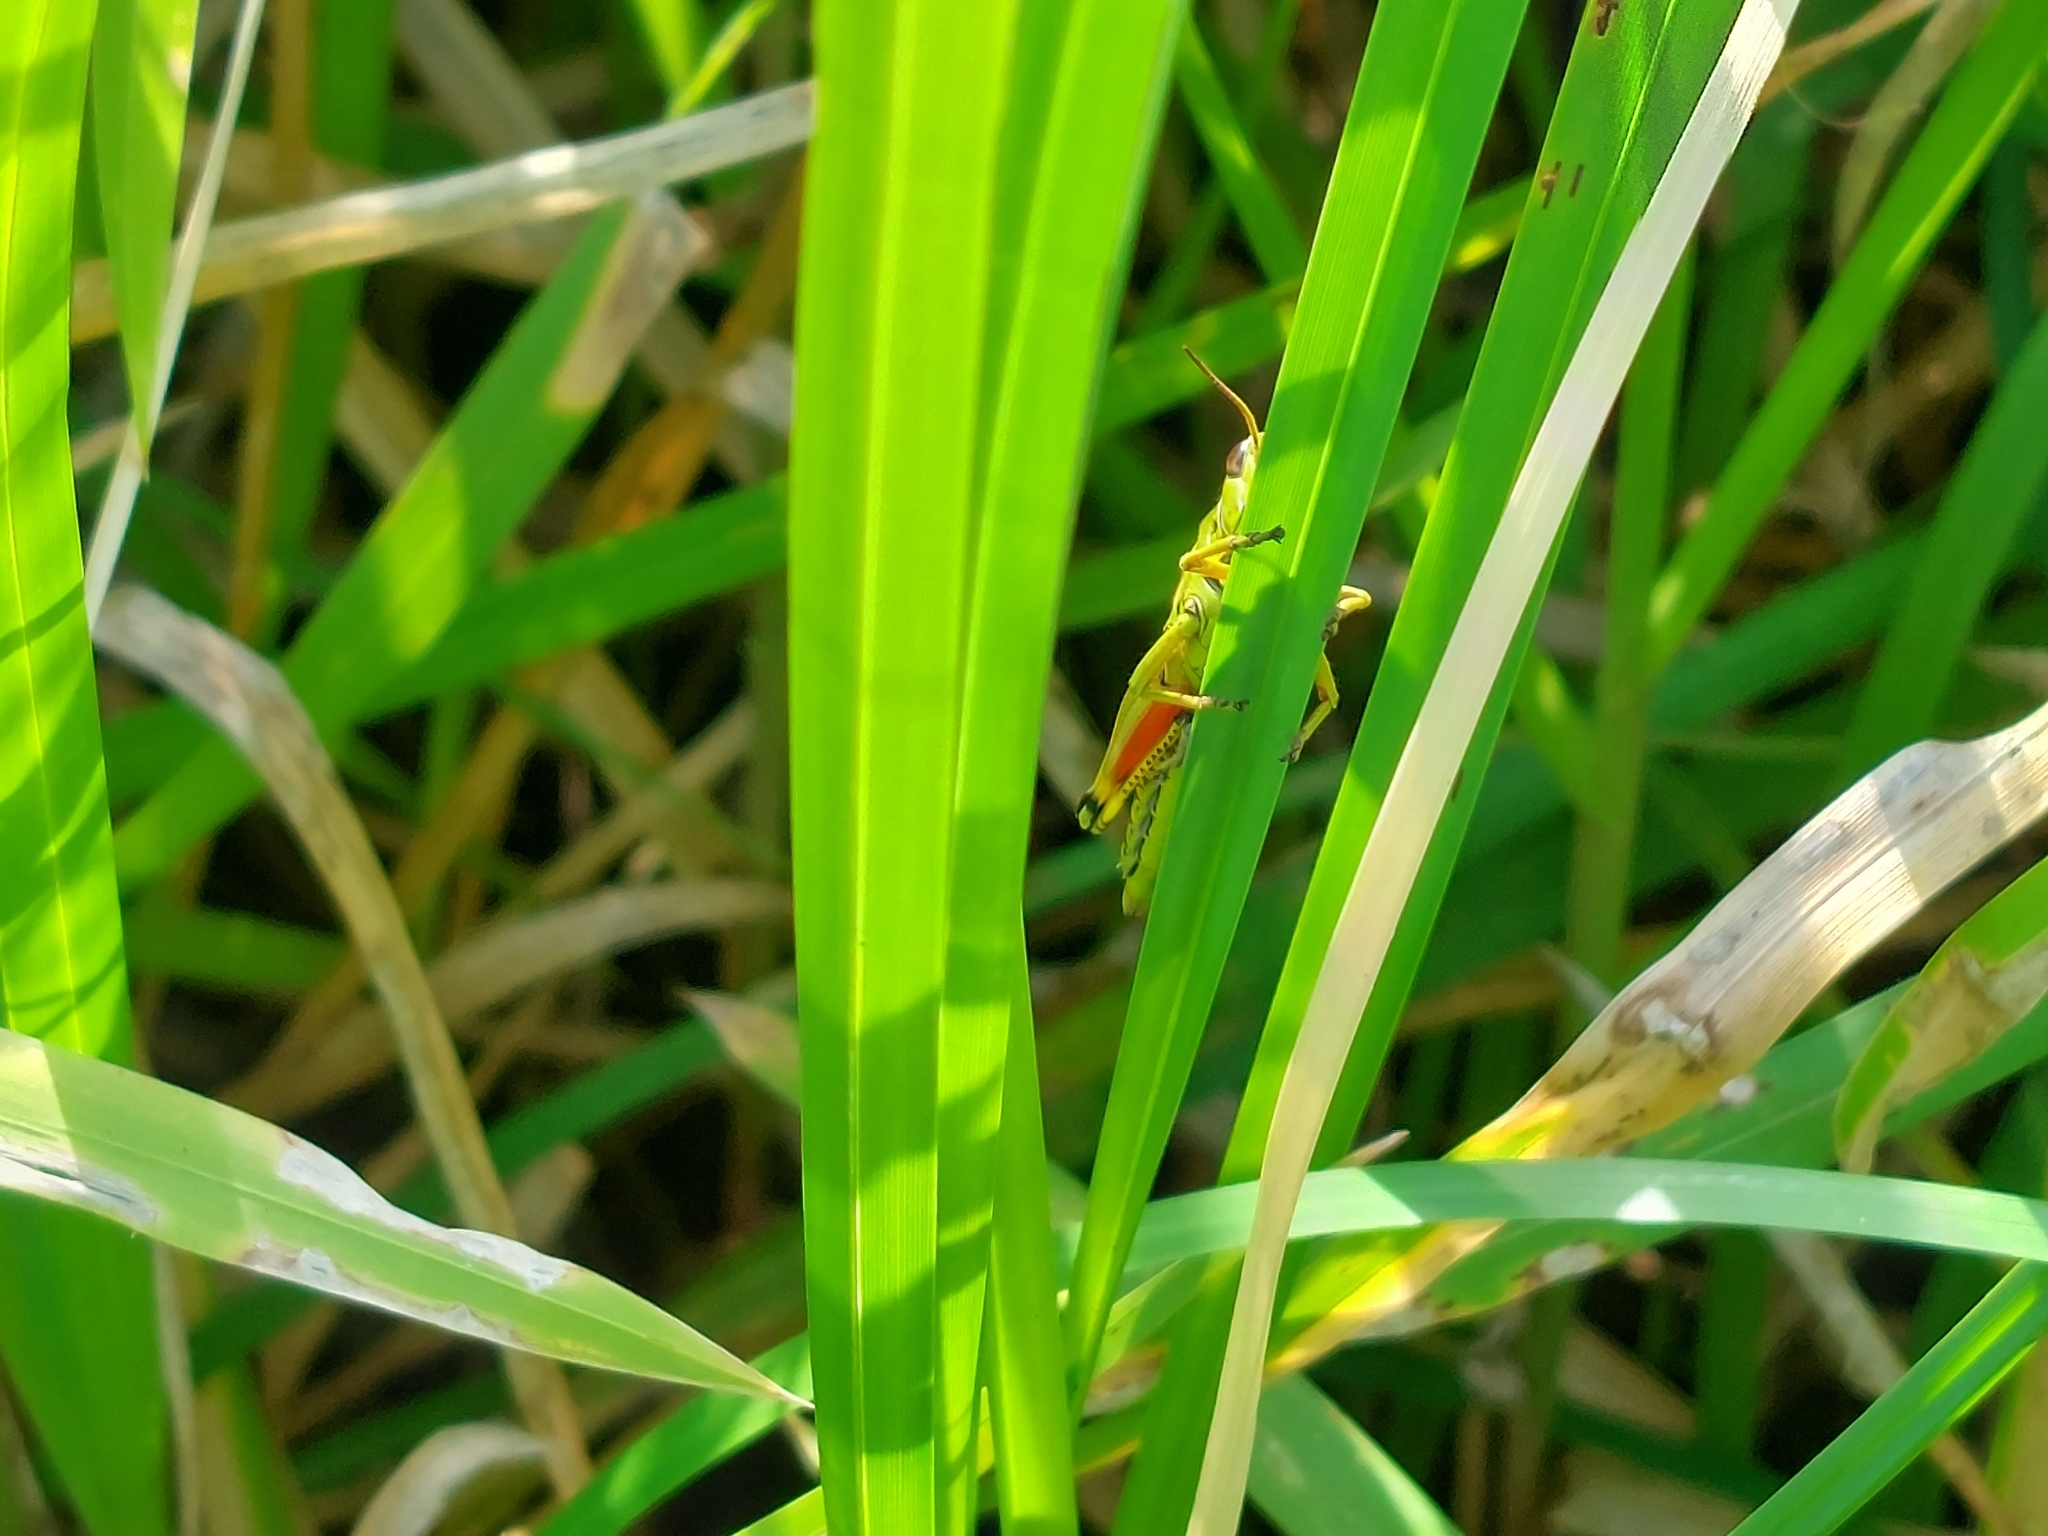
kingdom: Animalia
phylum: Arthropoda
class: Insecta
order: Orthoptera
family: Acrididae
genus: Stethophyma
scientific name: Stethophyma grossum
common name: Large marsh grasshopper
